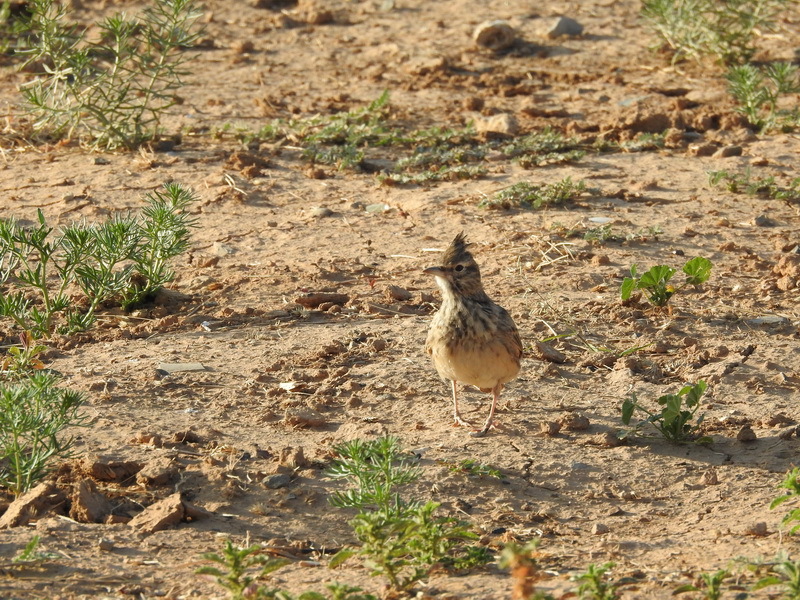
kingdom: Animalia
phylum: Chordata
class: Aves
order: Passeriformes
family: Alaudidae
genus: Galerida
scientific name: Galerida cristata
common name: Crested lark
